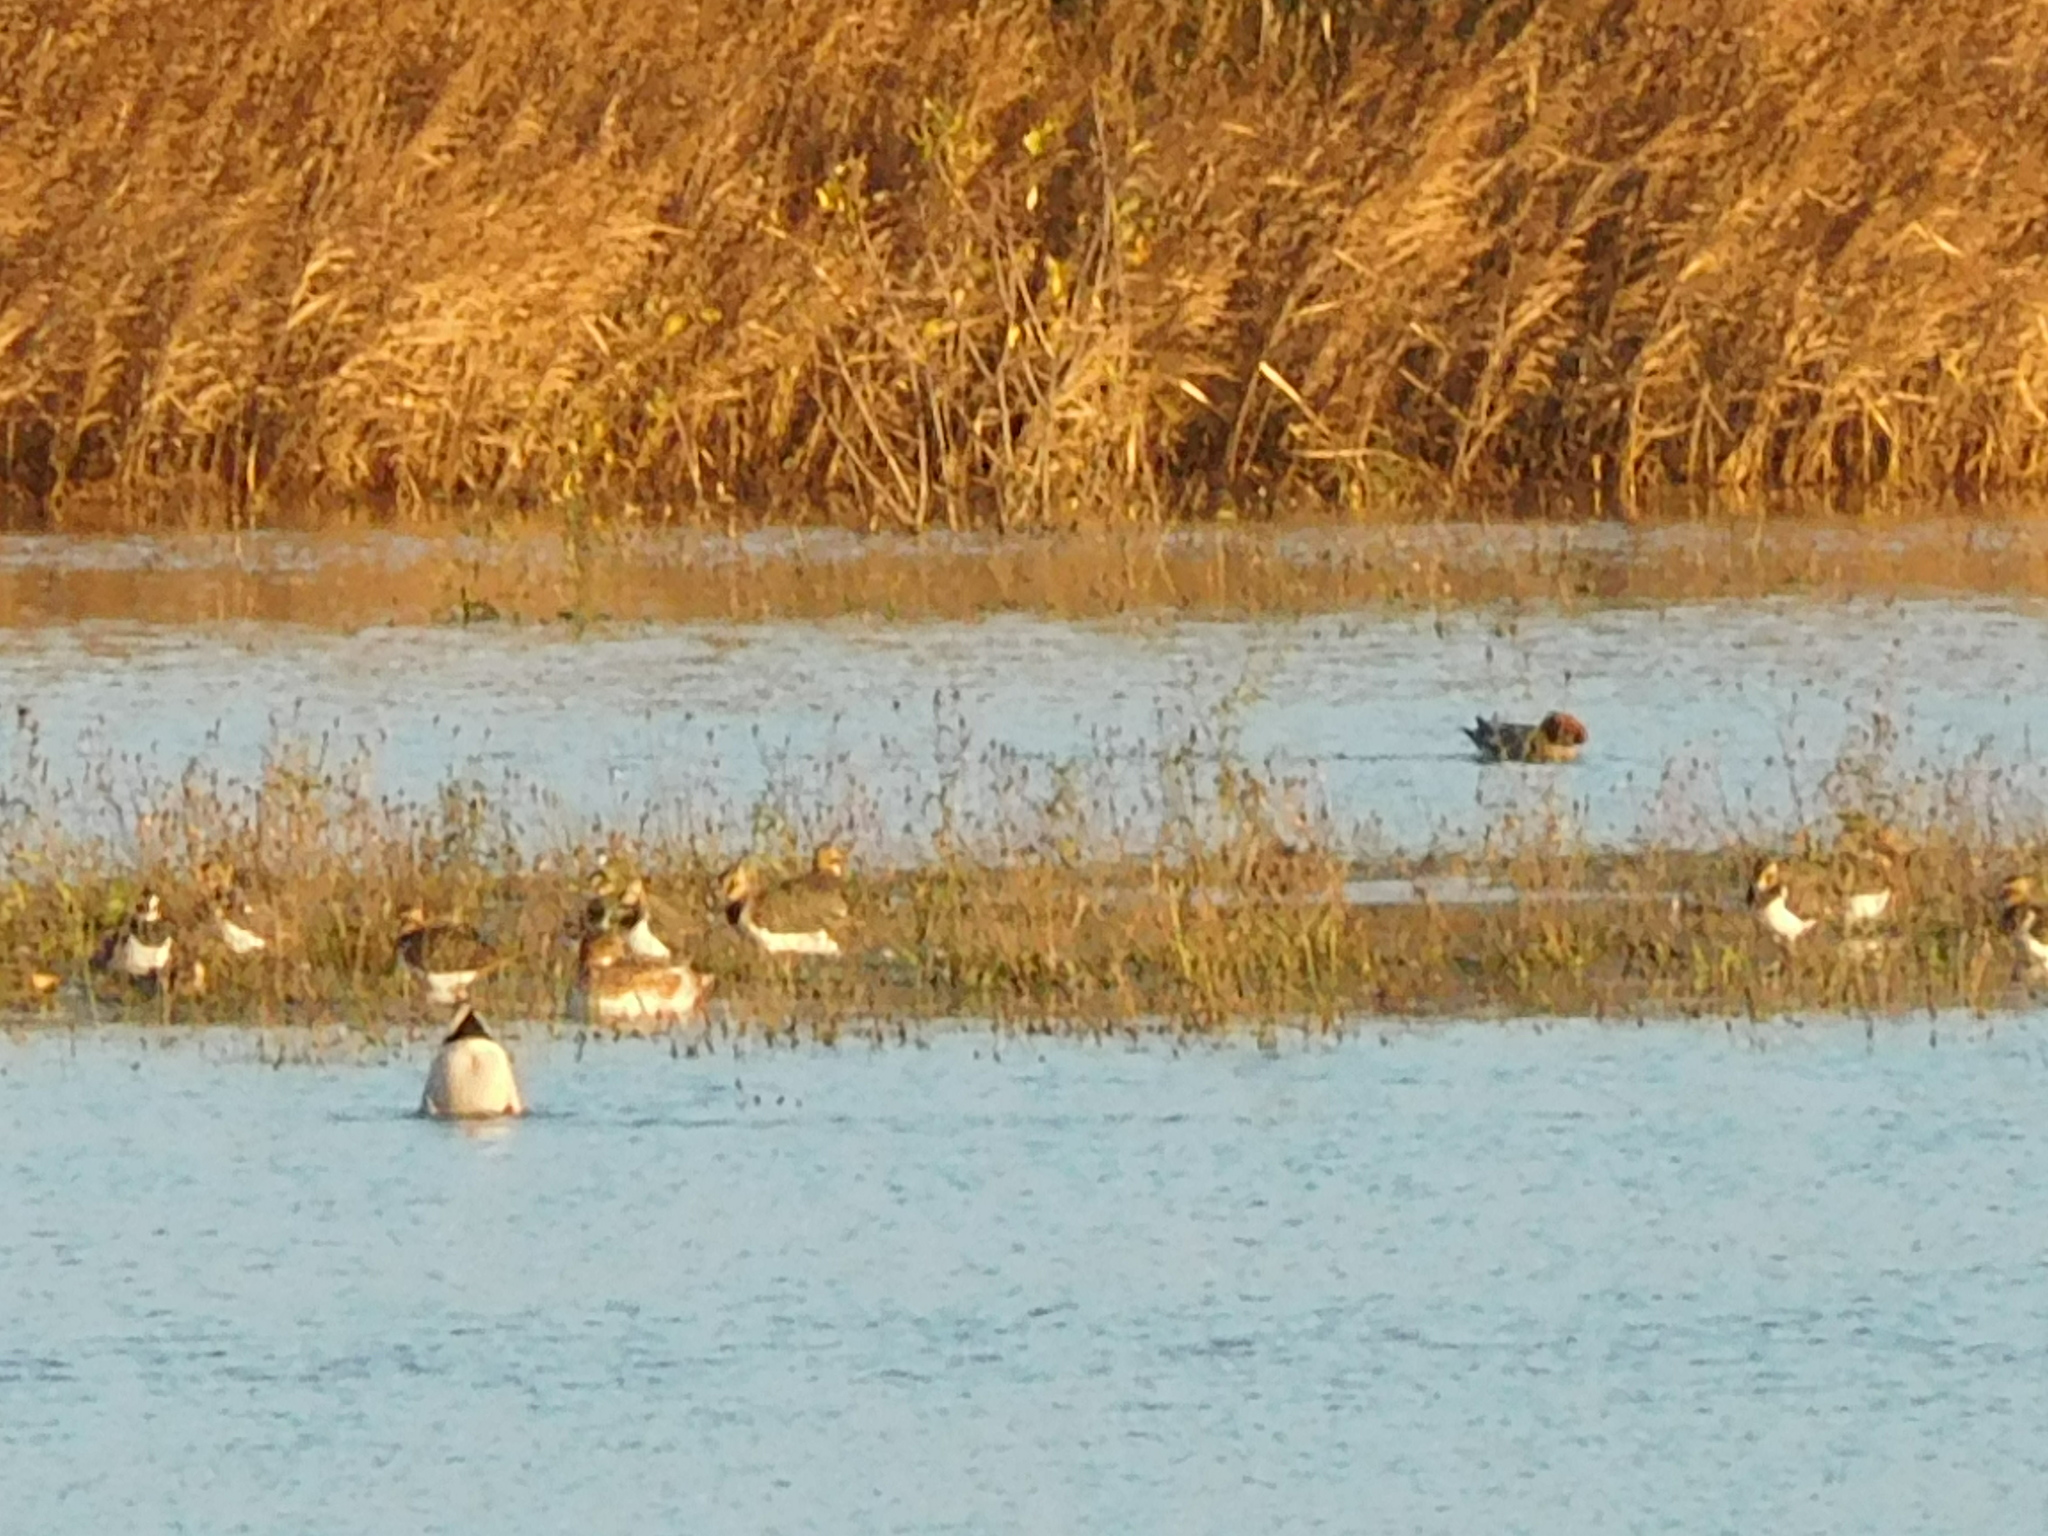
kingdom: Animalia
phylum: Chordata
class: Aves
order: Anseriformes
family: Anatidae
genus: Mareca
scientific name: Mareca penelope
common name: Eurasian wigeon
